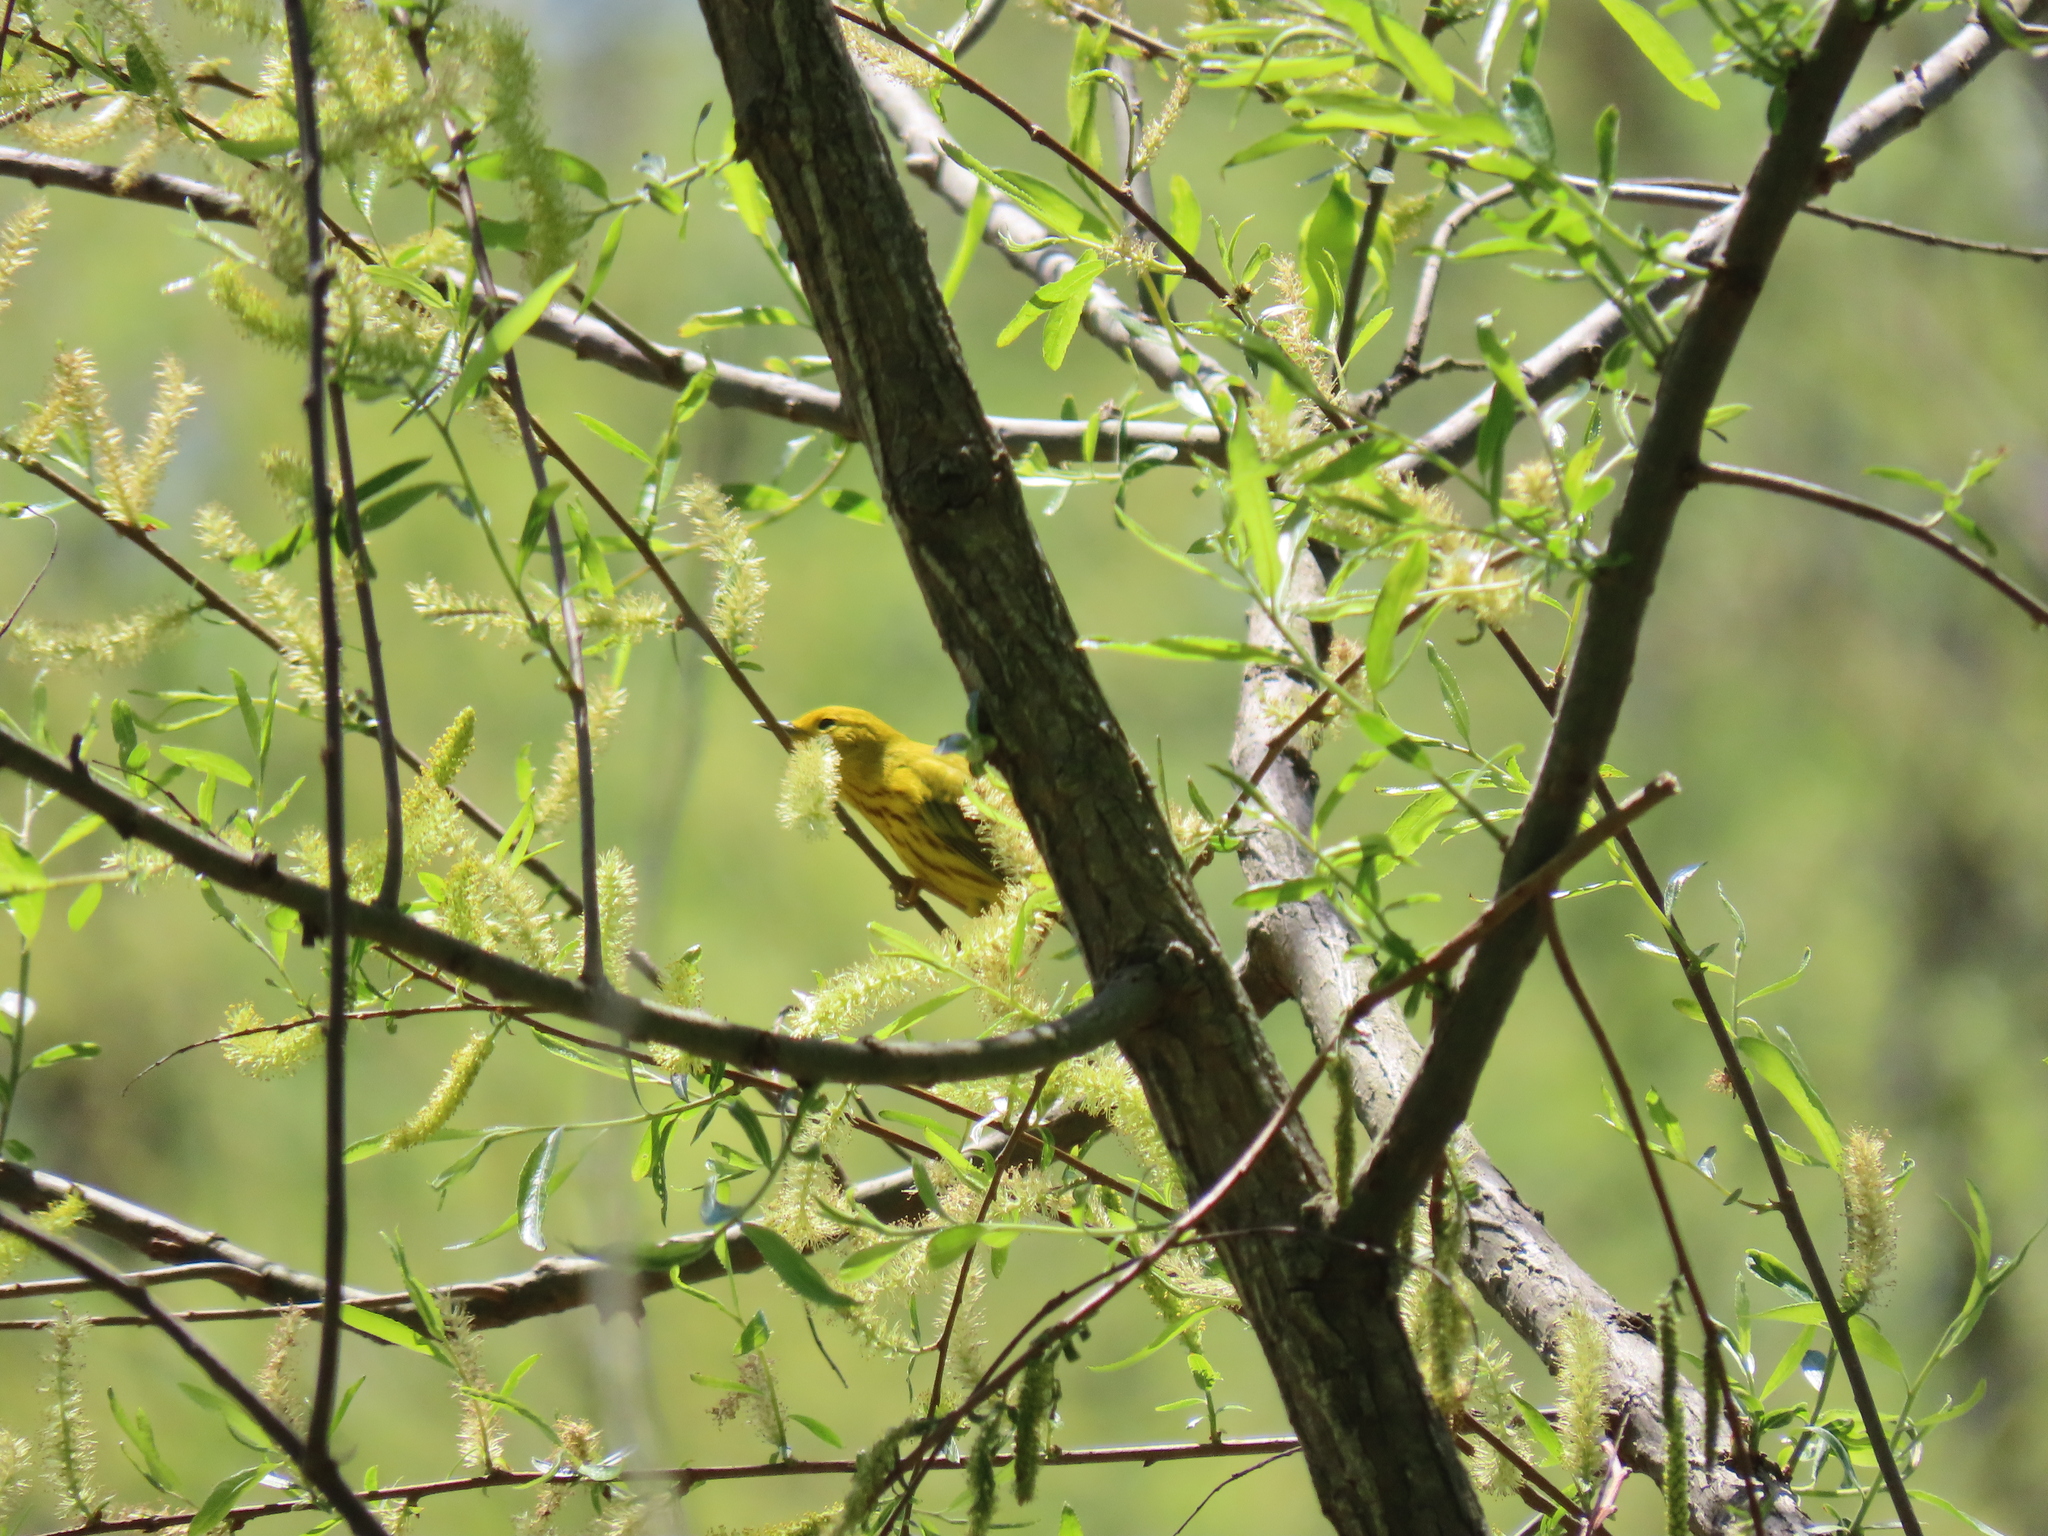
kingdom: Animalia
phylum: Chordata
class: Aves
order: Passeriformes
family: Parulidae
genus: Setophaga
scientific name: Setophaga petechia
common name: Yellow warbler
